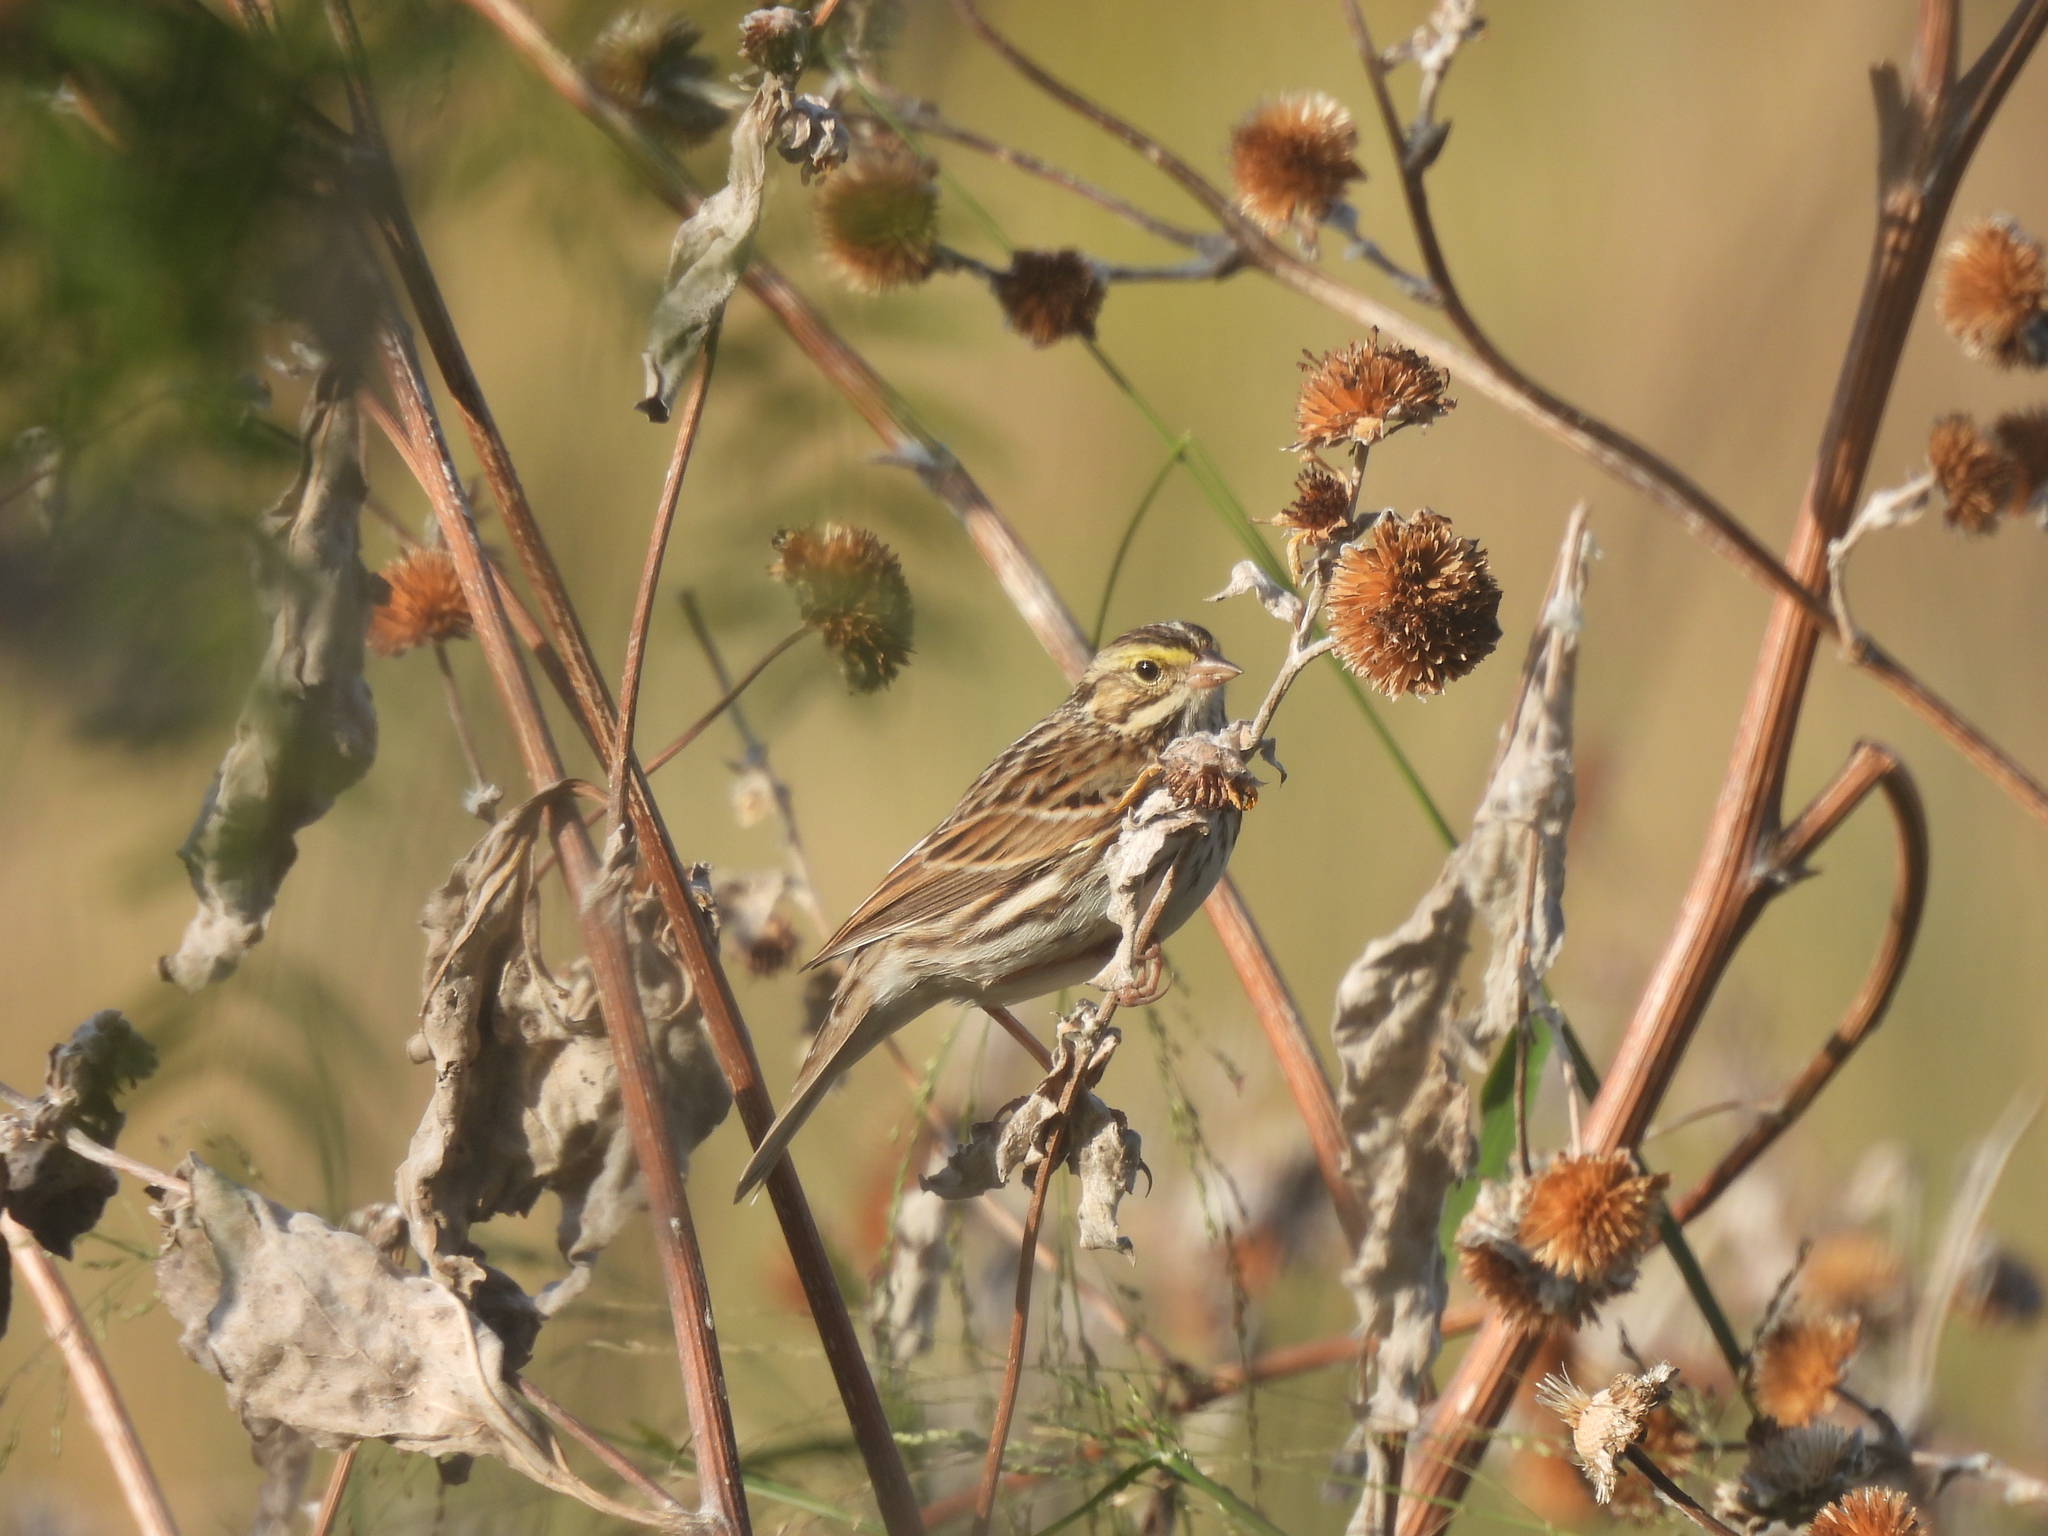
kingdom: Animalia
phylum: Chordata
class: Aves
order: Passeriformes
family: Passerellidae
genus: Passerculus
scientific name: Passerculus sandwichensis
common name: Savannah sparrow
